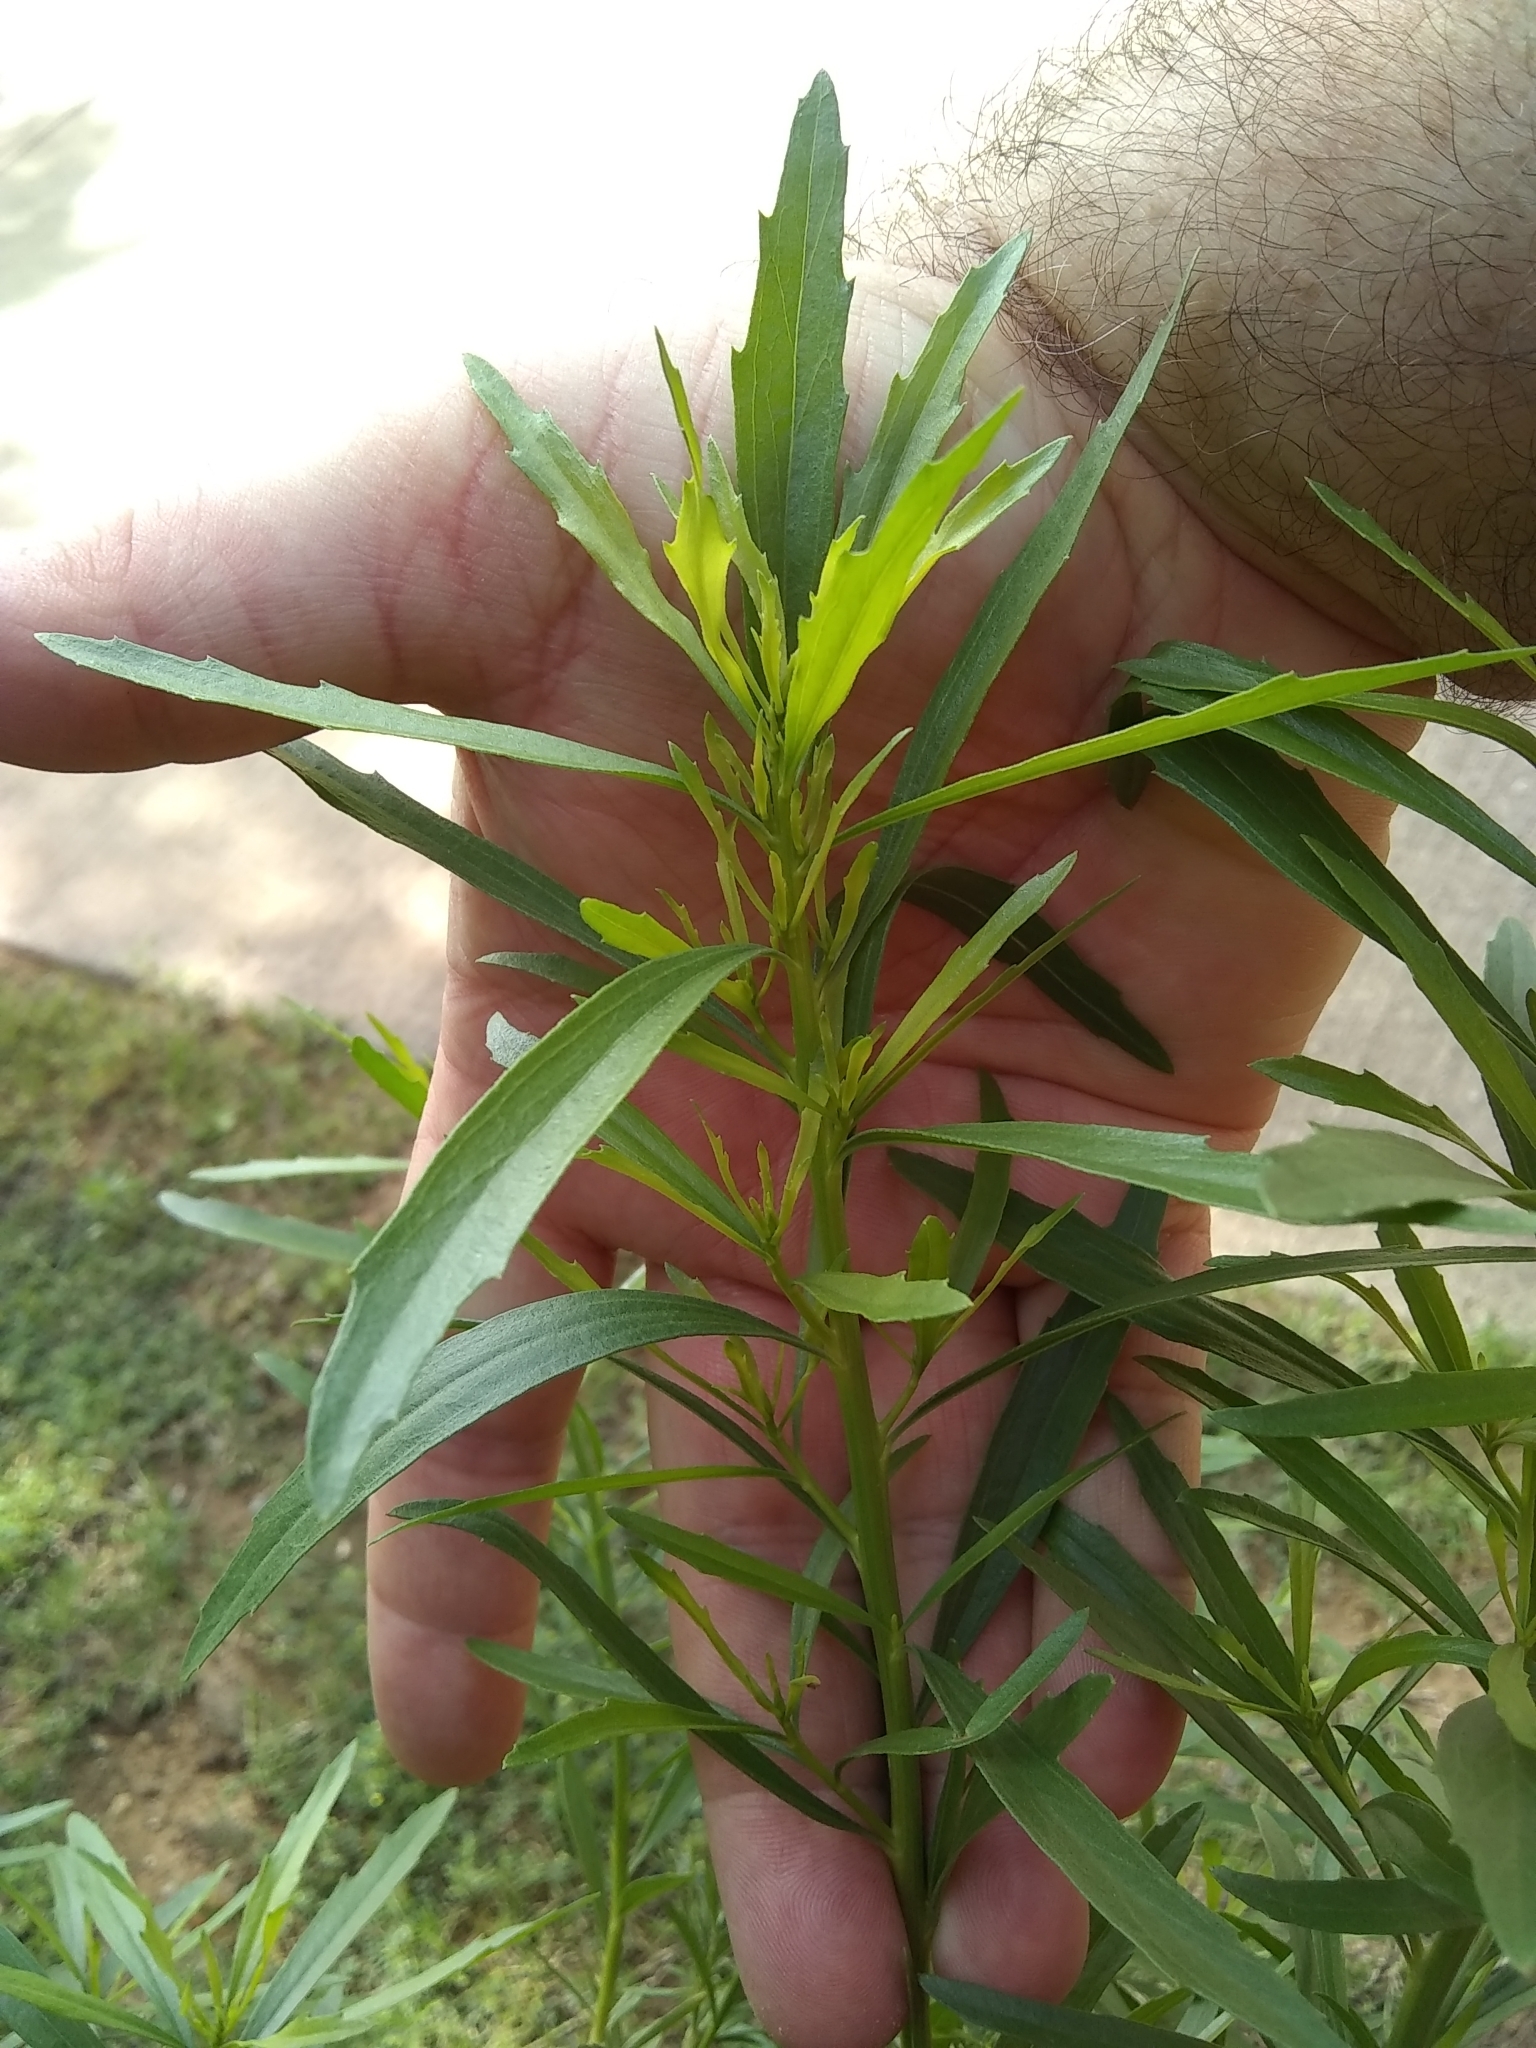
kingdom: Plantae
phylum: Tracheophyta
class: Magnoliopsida
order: Asterales
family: Asteraceae
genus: Baccharis
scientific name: Baccharis neglecta
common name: Roosevelt-weed
